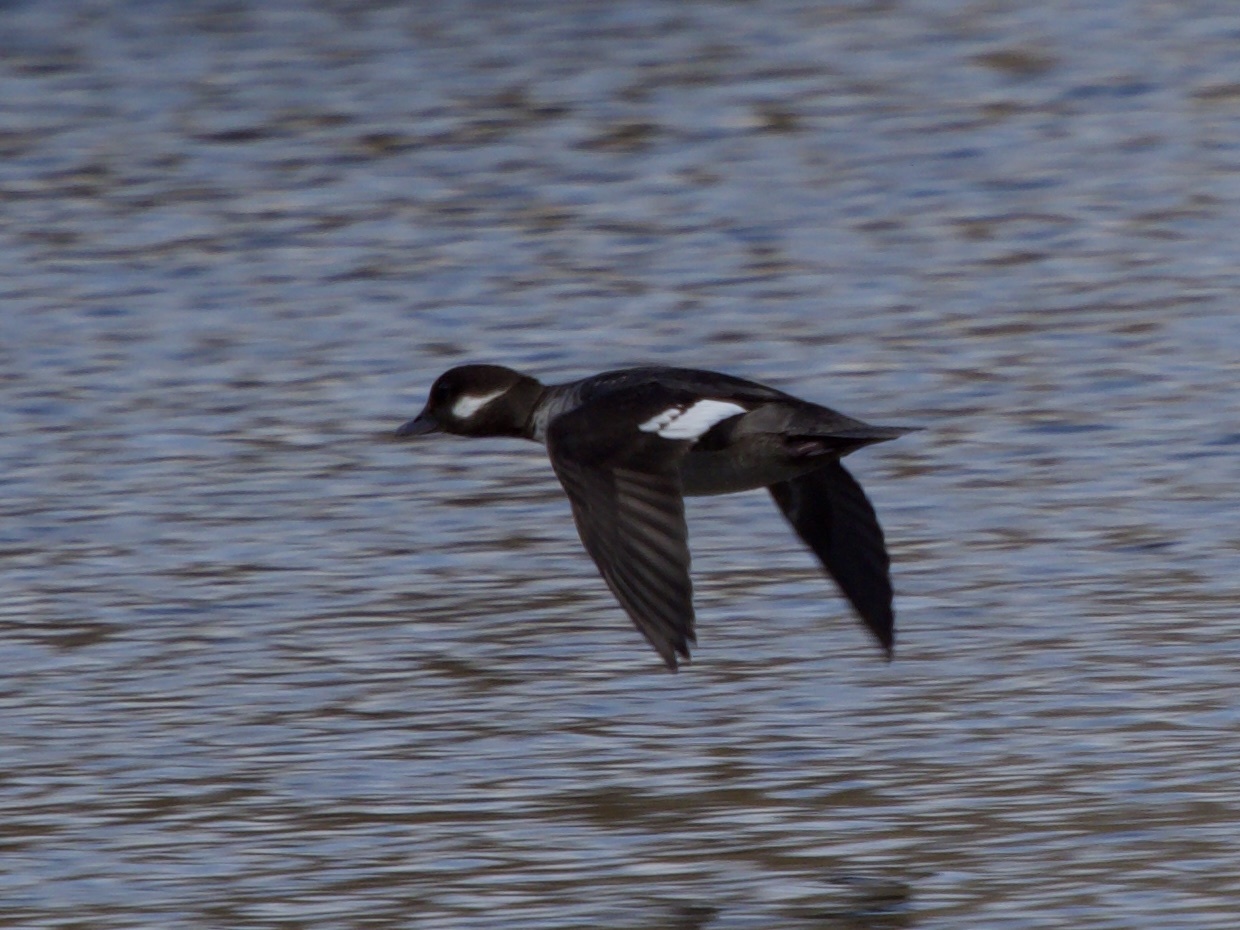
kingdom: Animalia
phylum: Chordata
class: Aves
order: Anseriformes
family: Anatidae
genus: Bucephala
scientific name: Bucephala albeola
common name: Bufflehead
